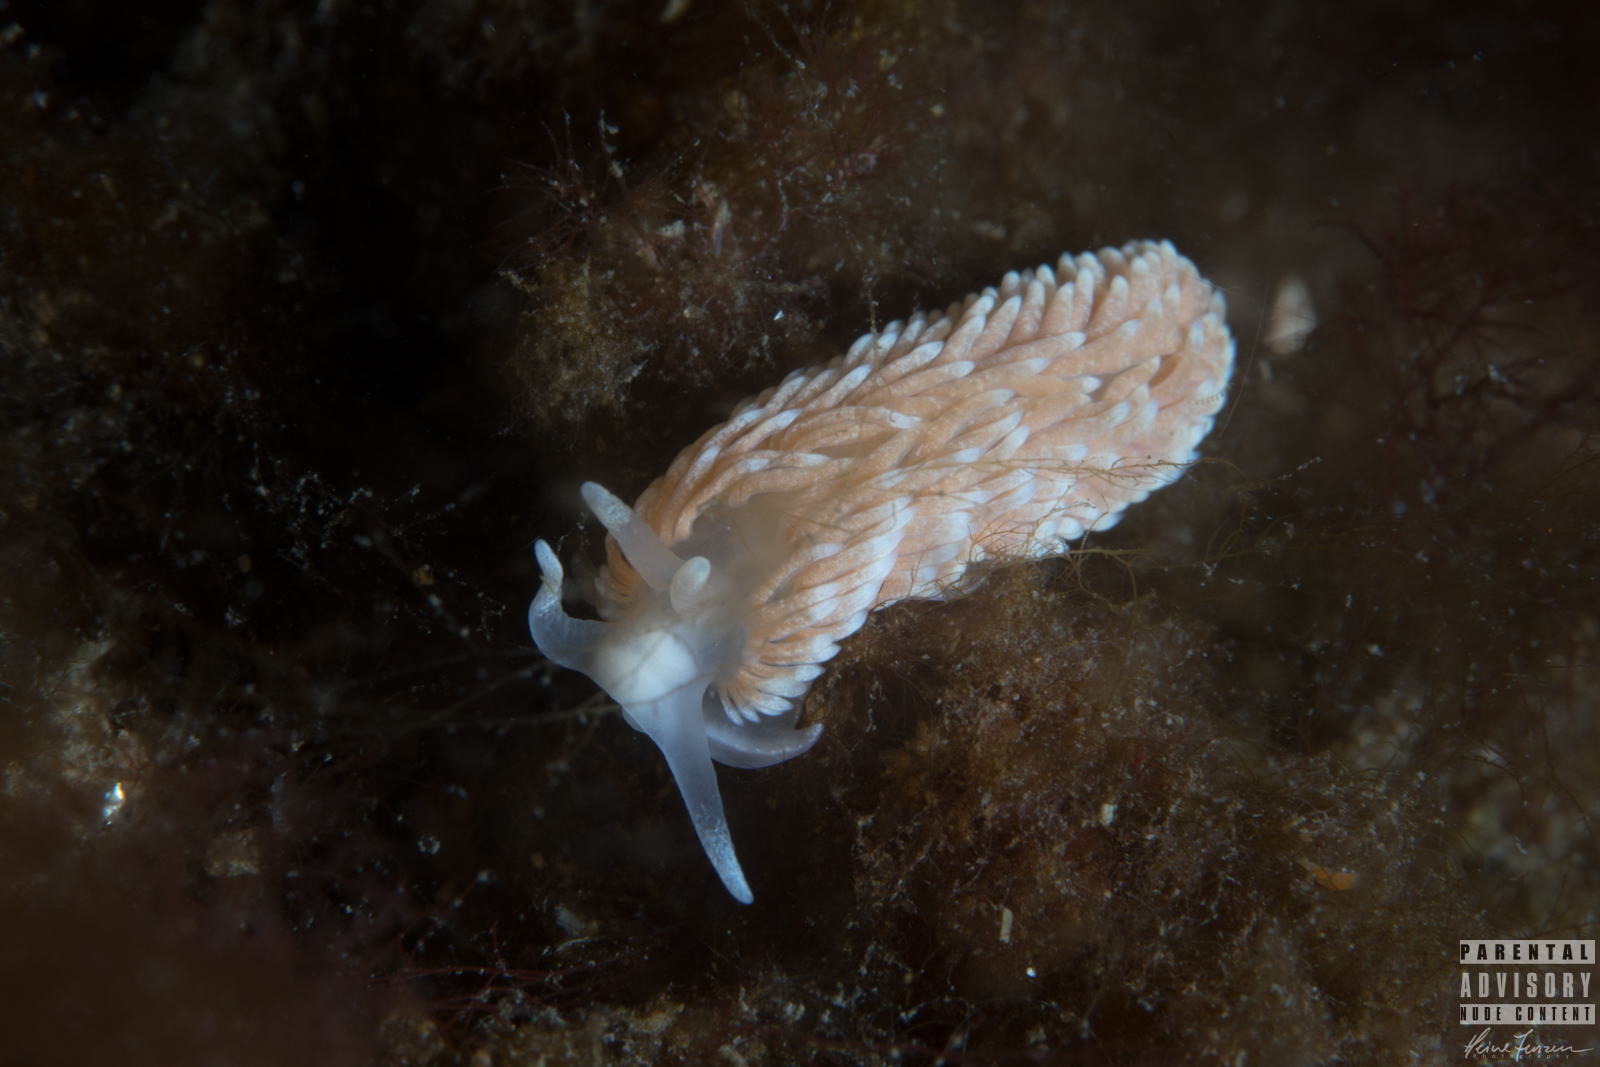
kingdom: Animalia
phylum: Mollusca
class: Gastropoda
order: Nudibranchia
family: Aeolidiidae
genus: Aeolidiella
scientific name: Aeolidiella glauca
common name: Orange-brown aeolid
